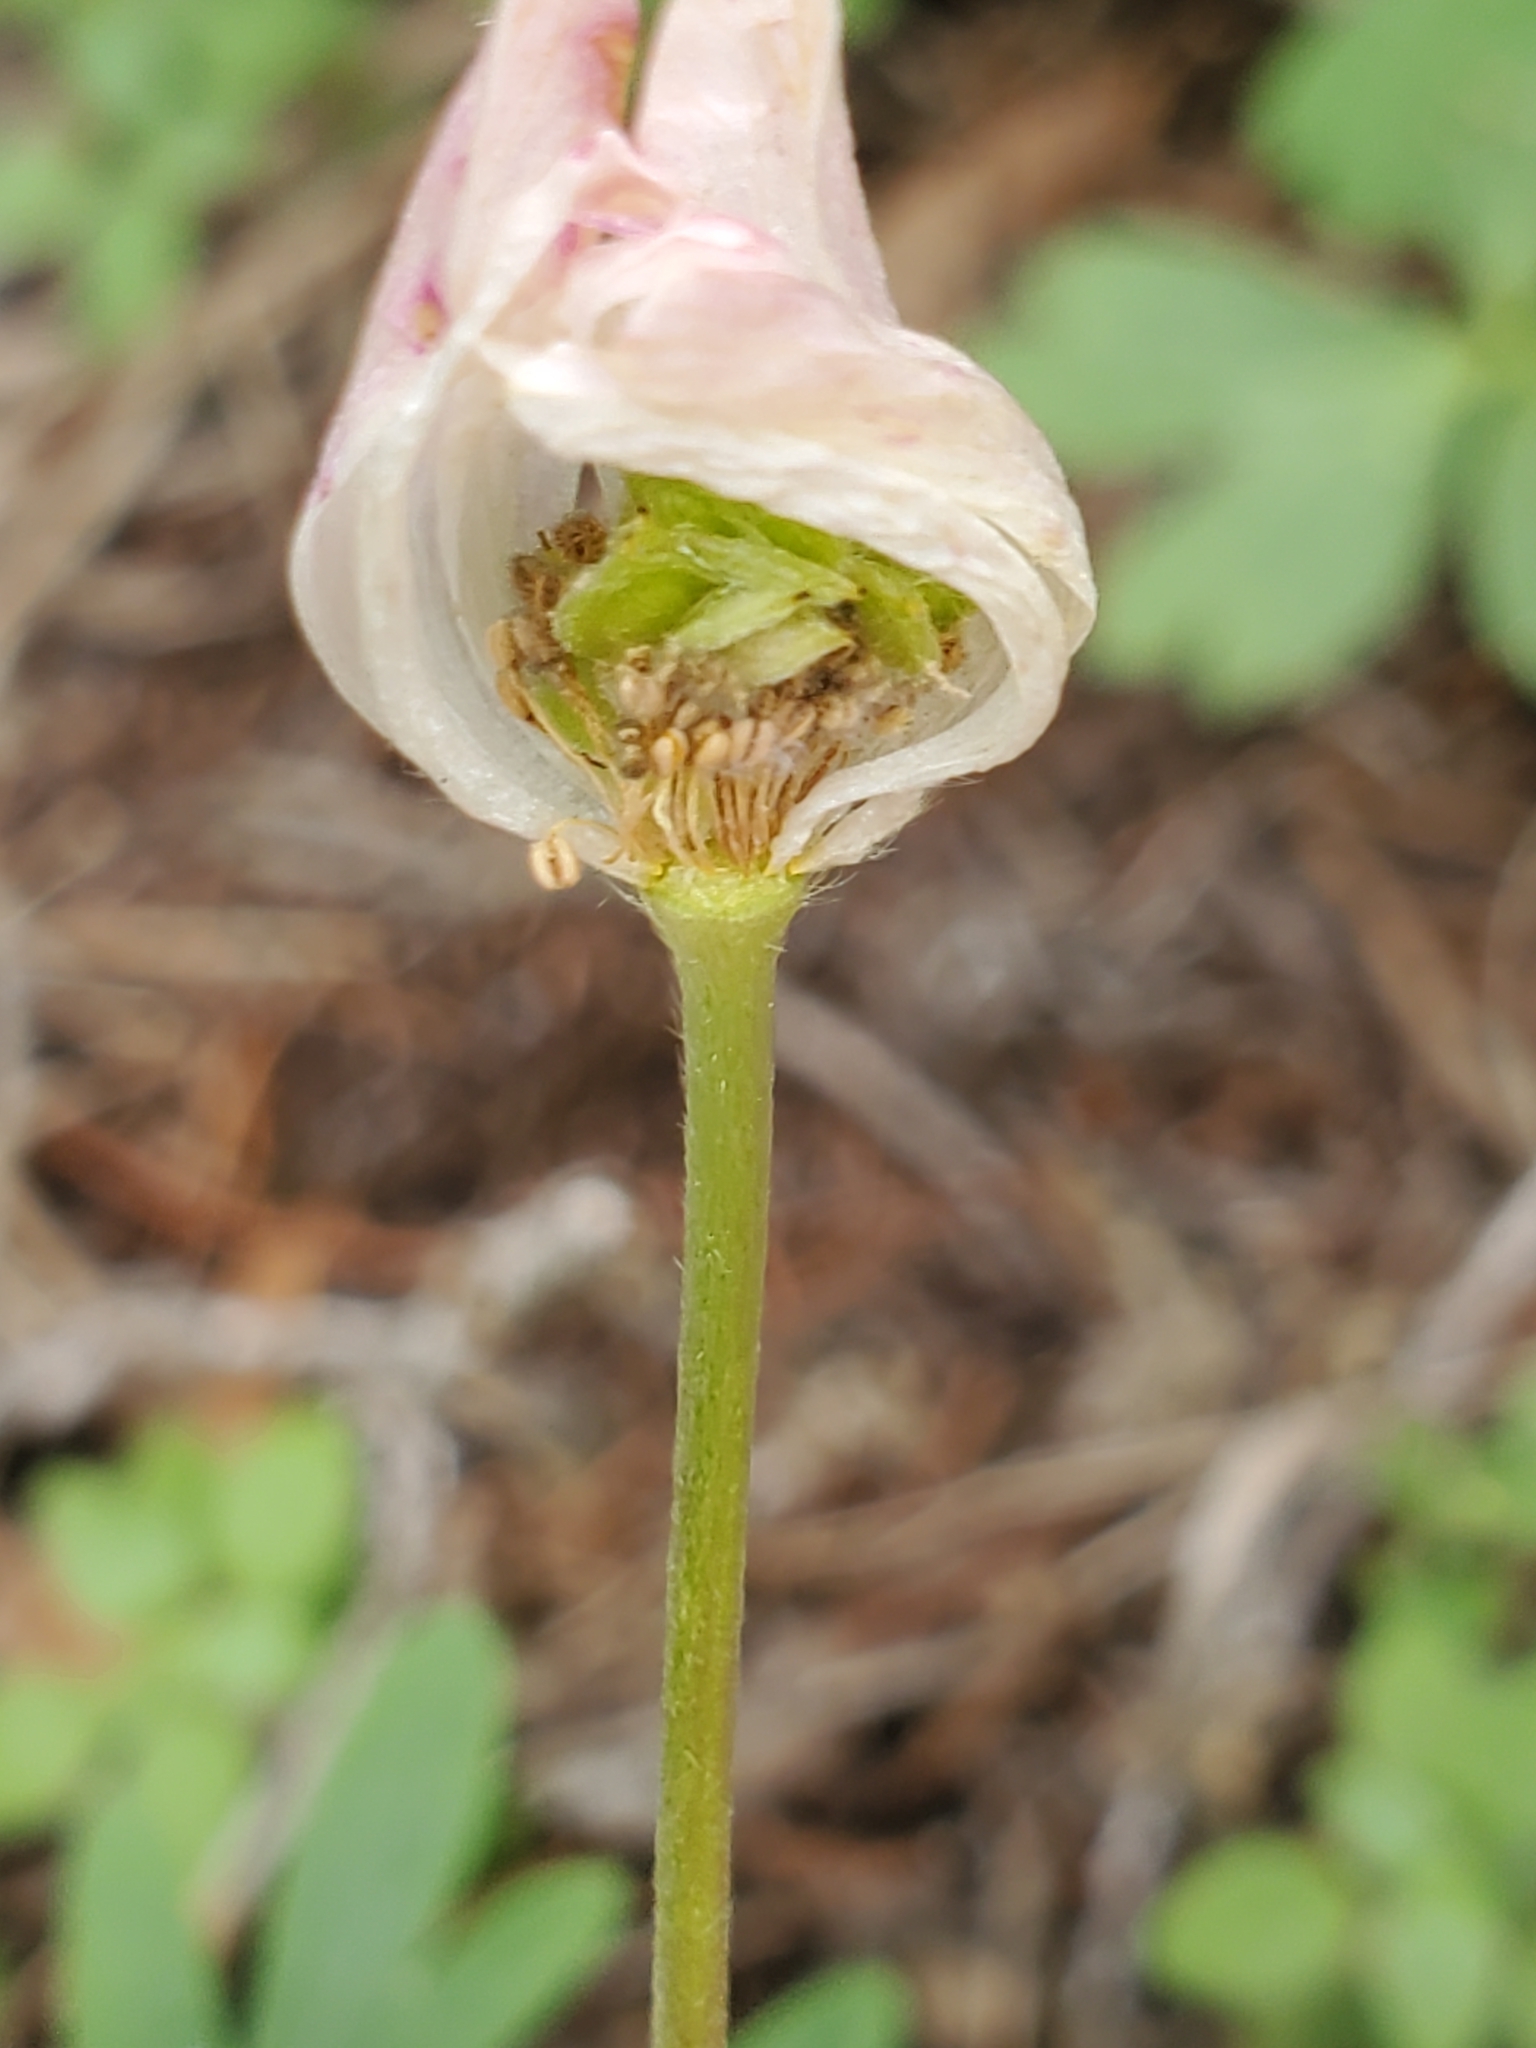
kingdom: Plantae
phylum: Tracheophyta
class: Magnoliopsida
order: Ranunculales
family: Ranunculaceae
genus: Anemone
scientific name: Anemone edwardsiana
